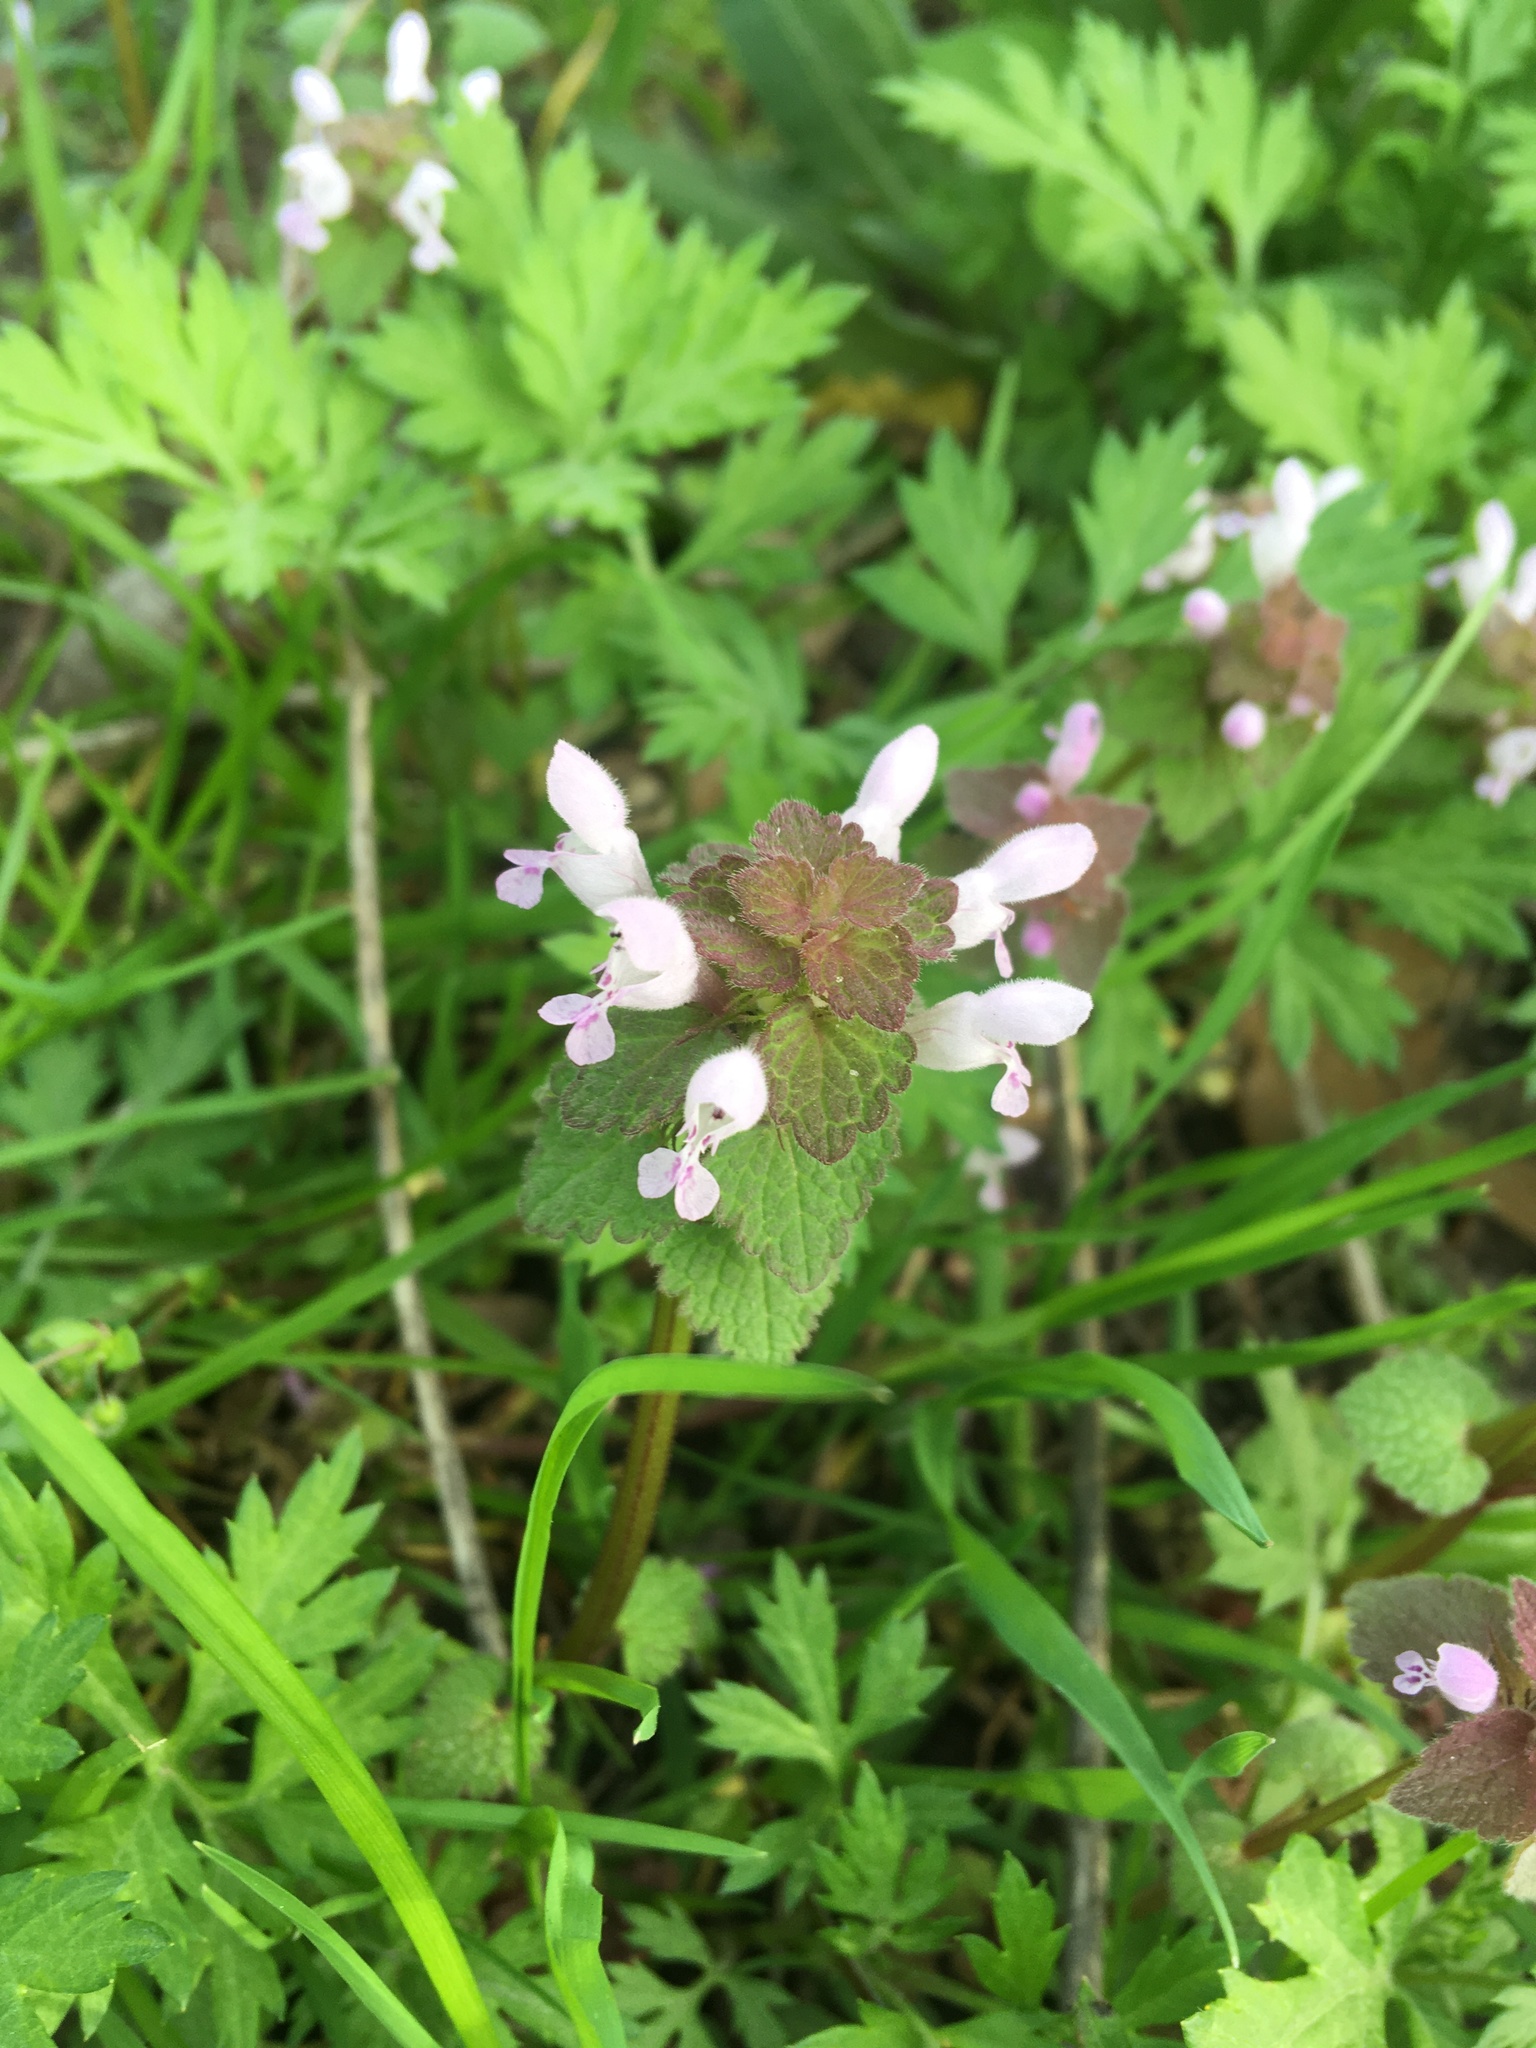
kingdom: Plantae
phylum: Tracheophyta
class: Magnoliopsida
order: Lamiales
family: Lamiaceae
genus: Lamium
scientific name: Lamium purpureum
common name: Red dead-nettle
